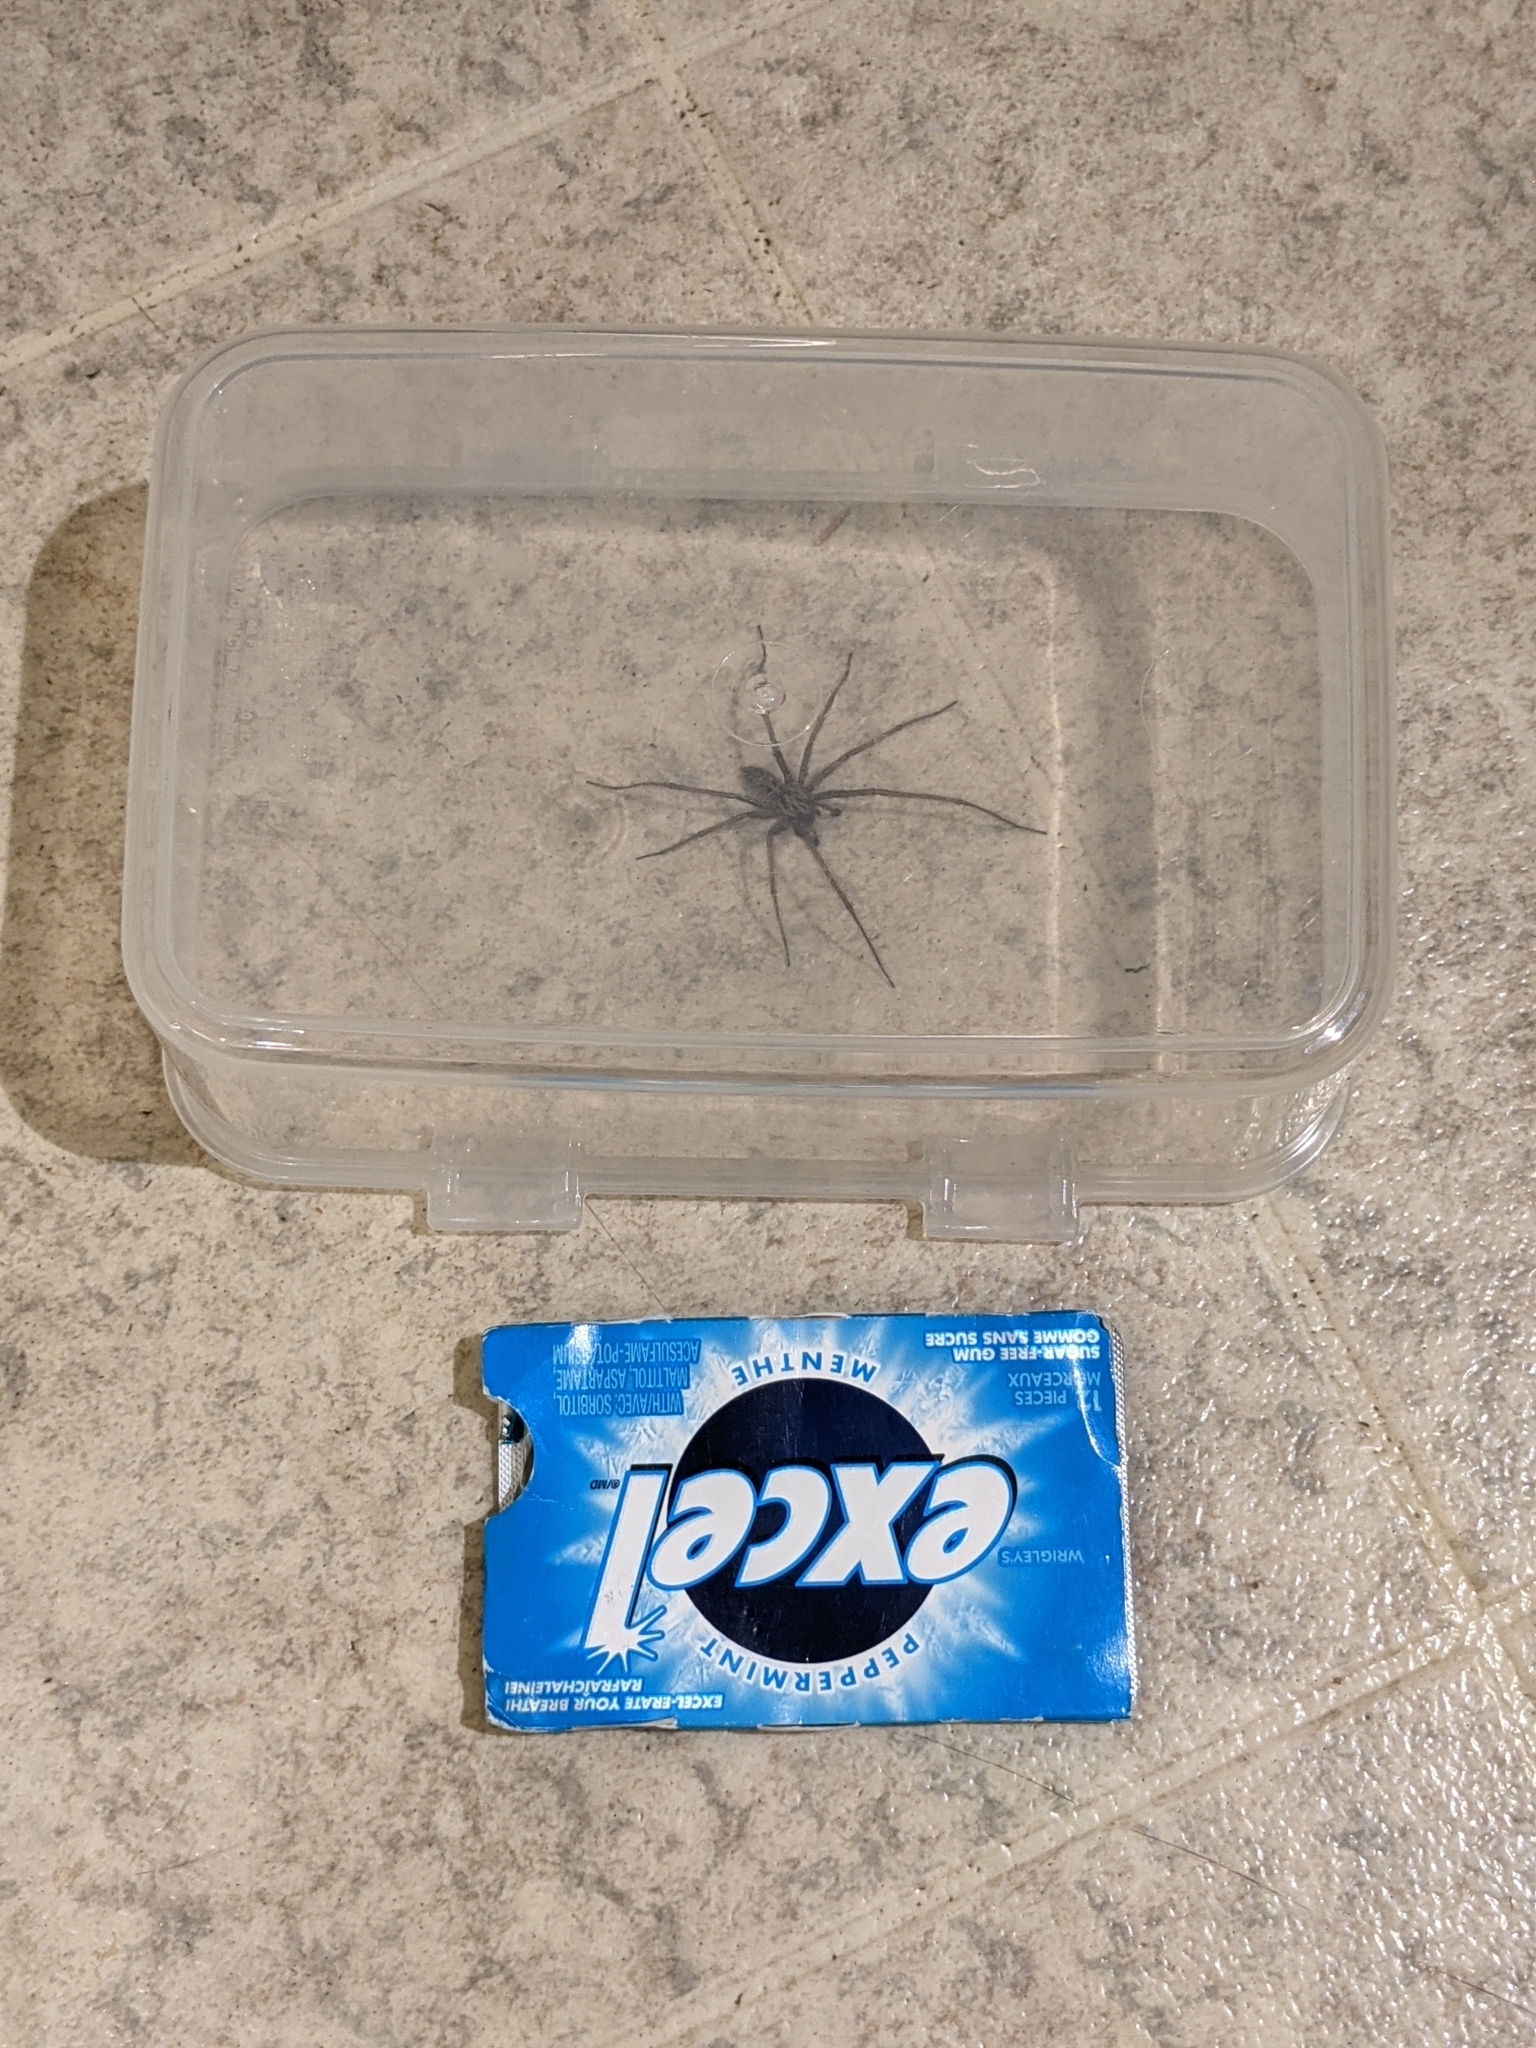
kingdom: Animalia
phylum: Arthropoda
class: Arachnida
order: Araneae
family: Agelenidae
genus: Eratigena
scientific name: Eratigena duellica
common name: Giant house spider
